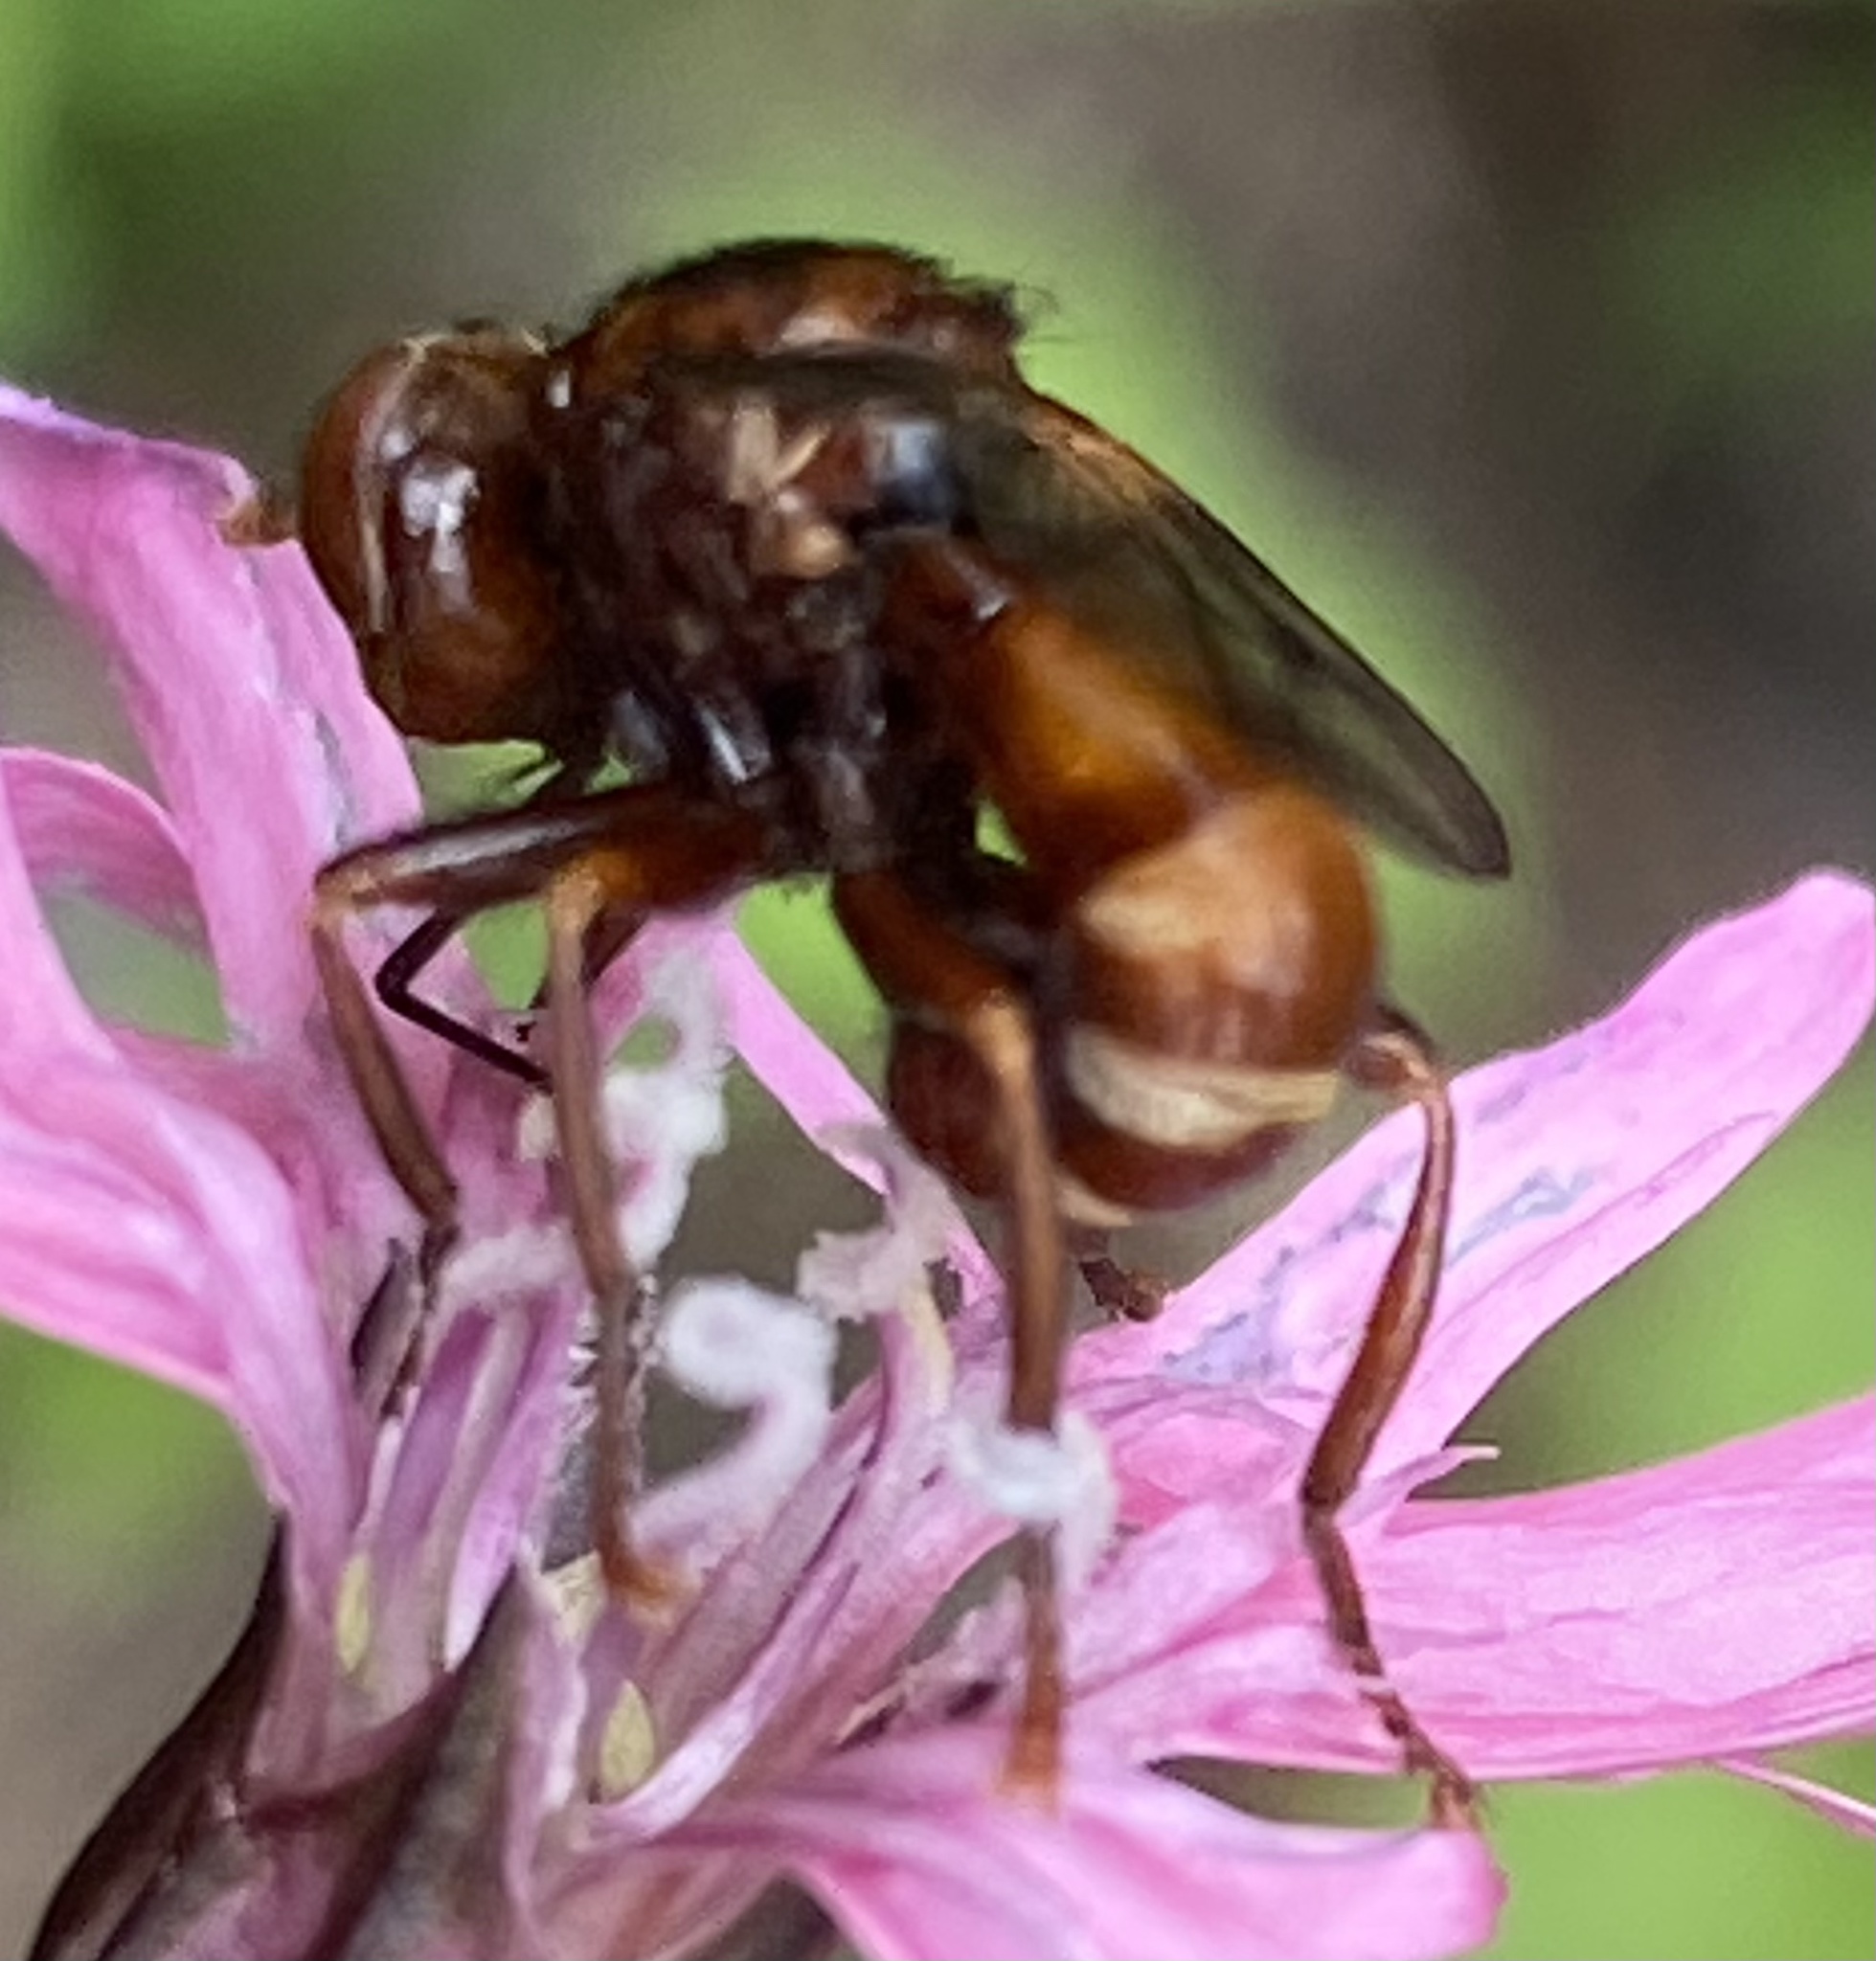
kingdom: Animalia
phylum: Arthropoda
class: Insecta
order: Diptera
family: Conopidae
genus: Sicus
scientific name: Sicus ferrugineus
